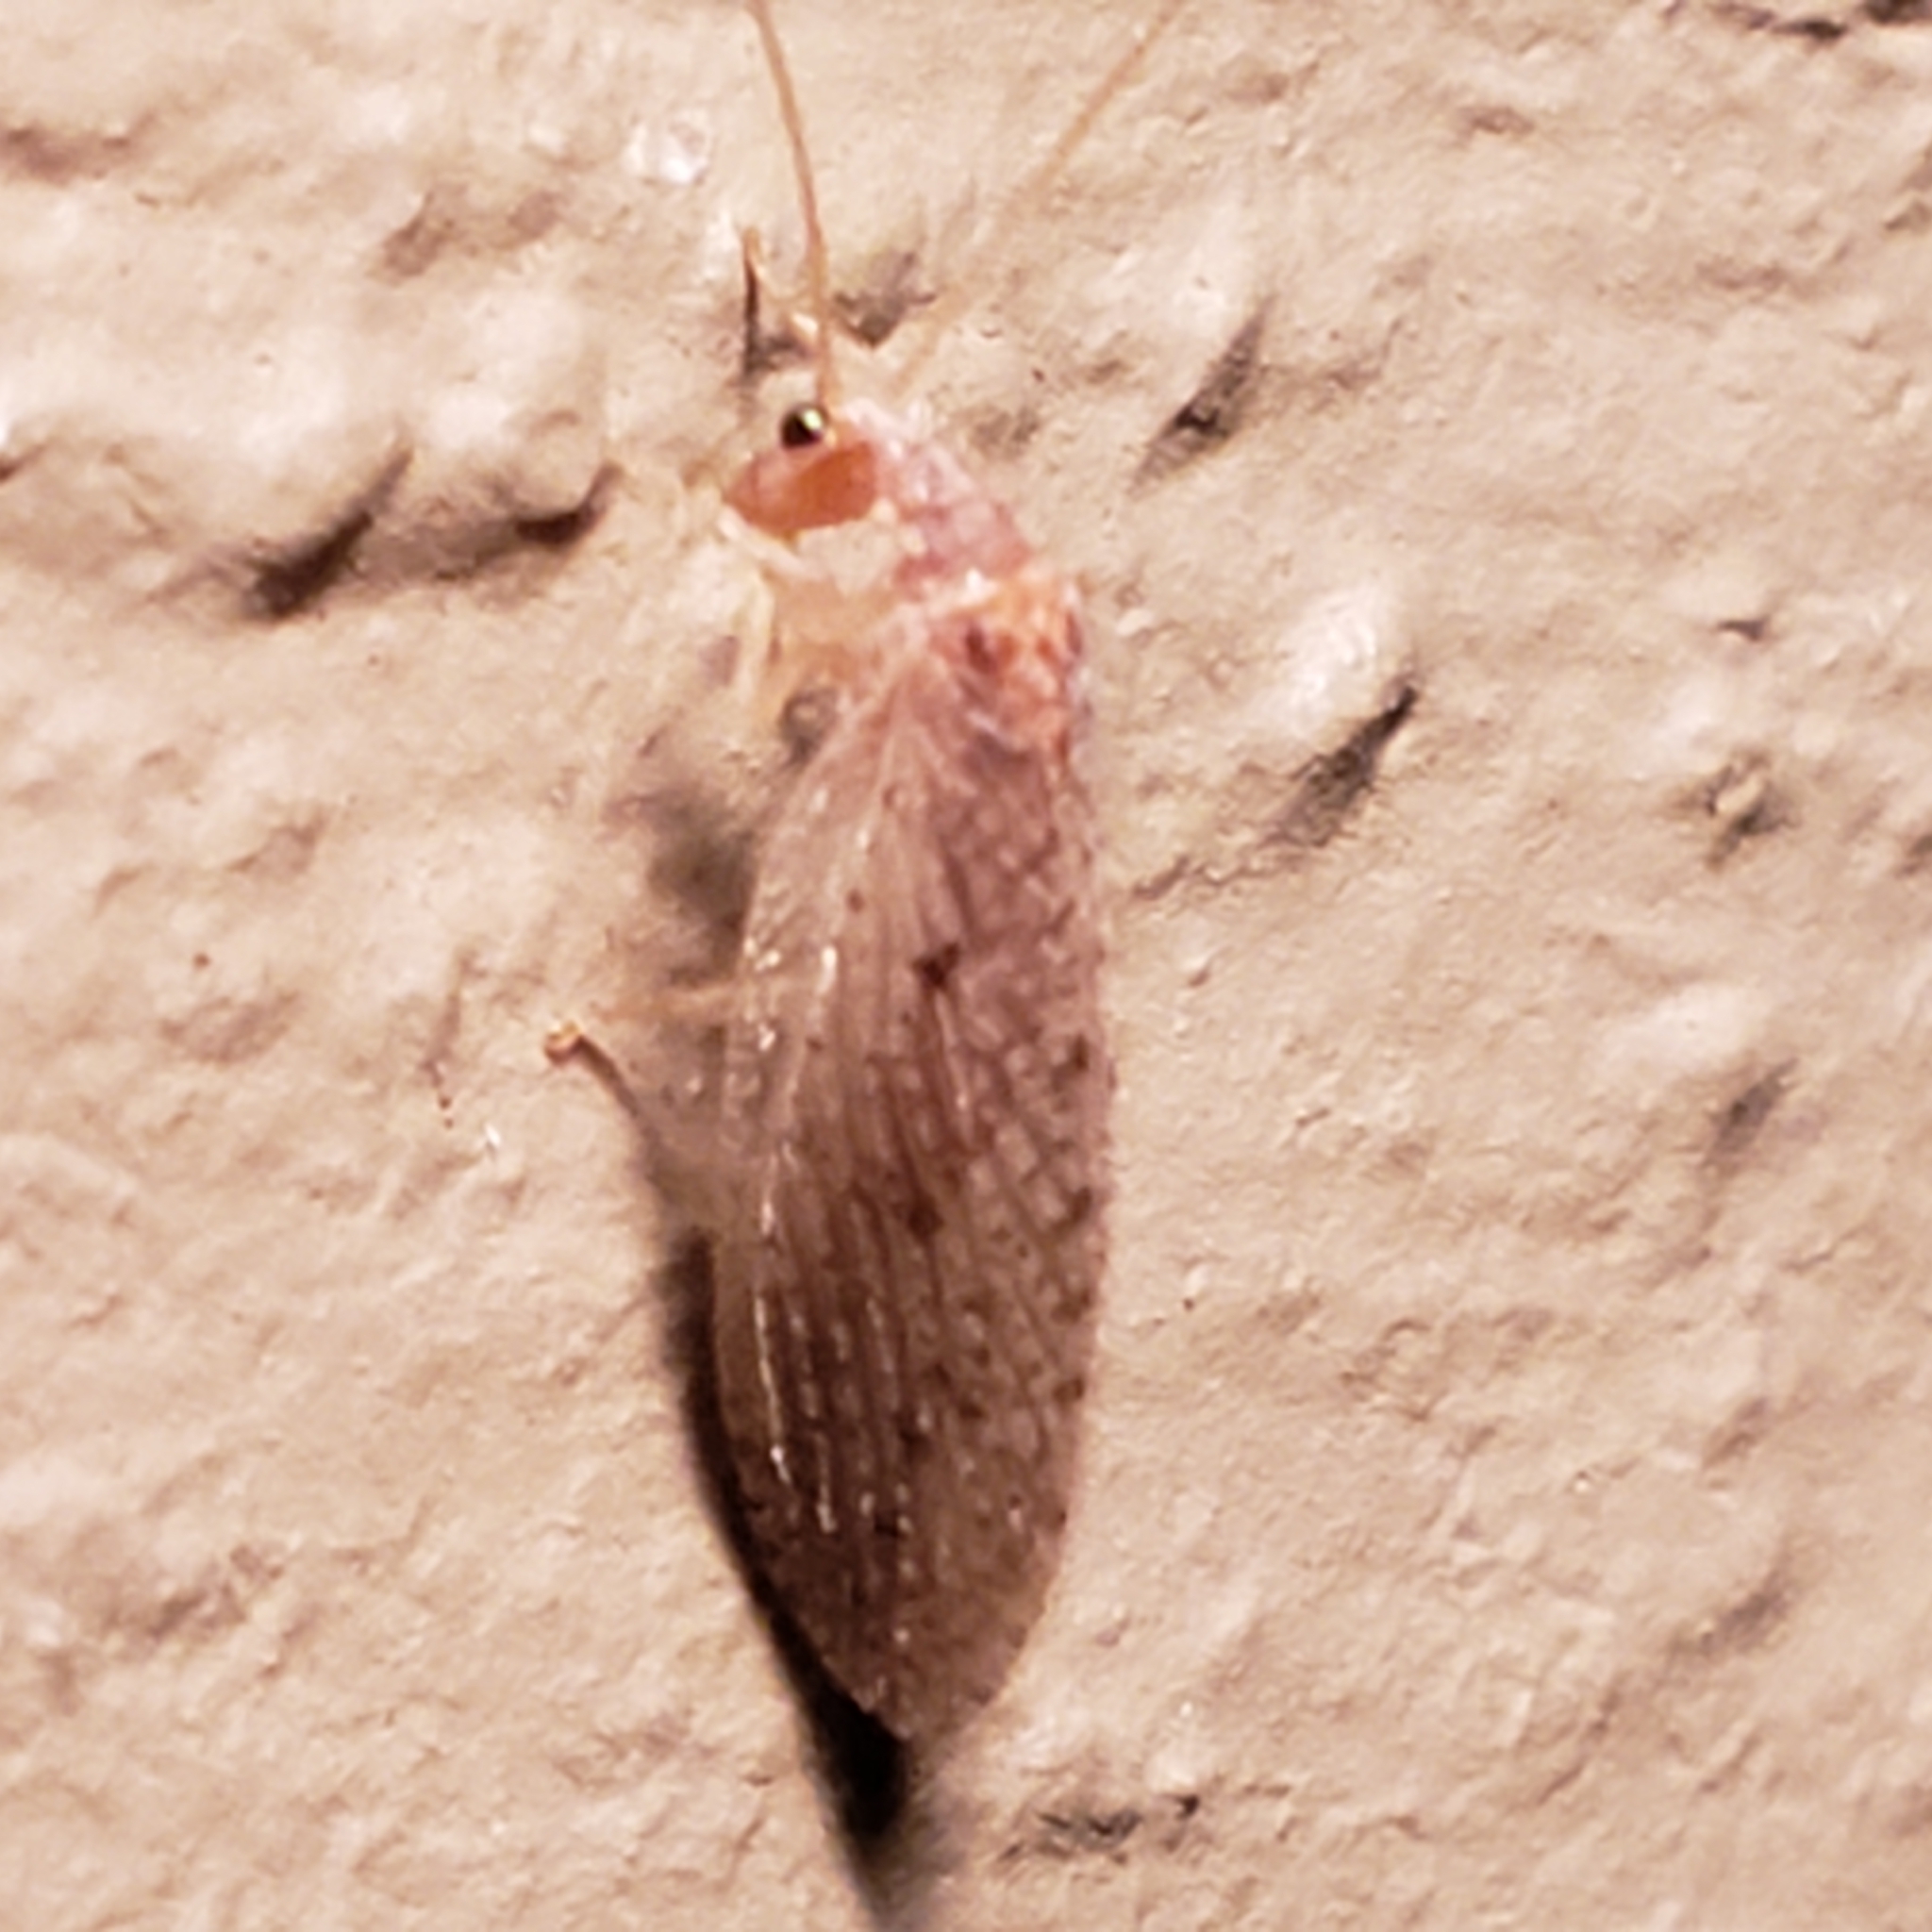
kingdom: Animalia
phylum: Arthropoda
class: Insecta
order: Neuroptera
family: Hemerobiidae
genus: Micromus
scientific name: Micromus subanticus
